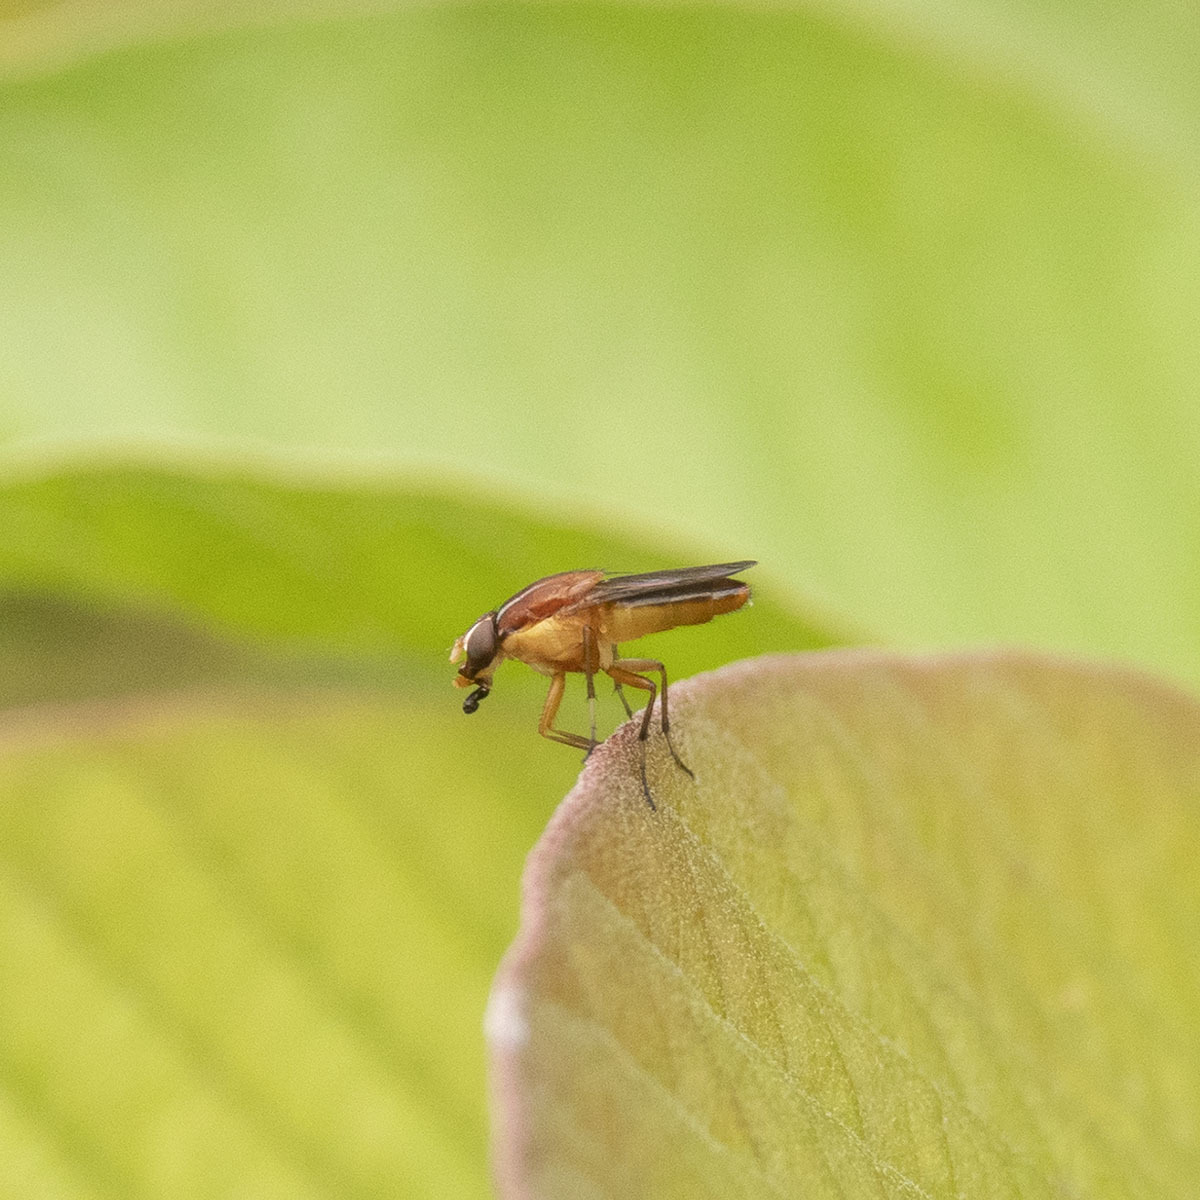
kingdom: Animalia
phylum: Arthropoda
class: Insecta
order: Diptera
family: Calliphoridae
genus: Borbororhinia
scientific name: Borbororhinia bivittata
